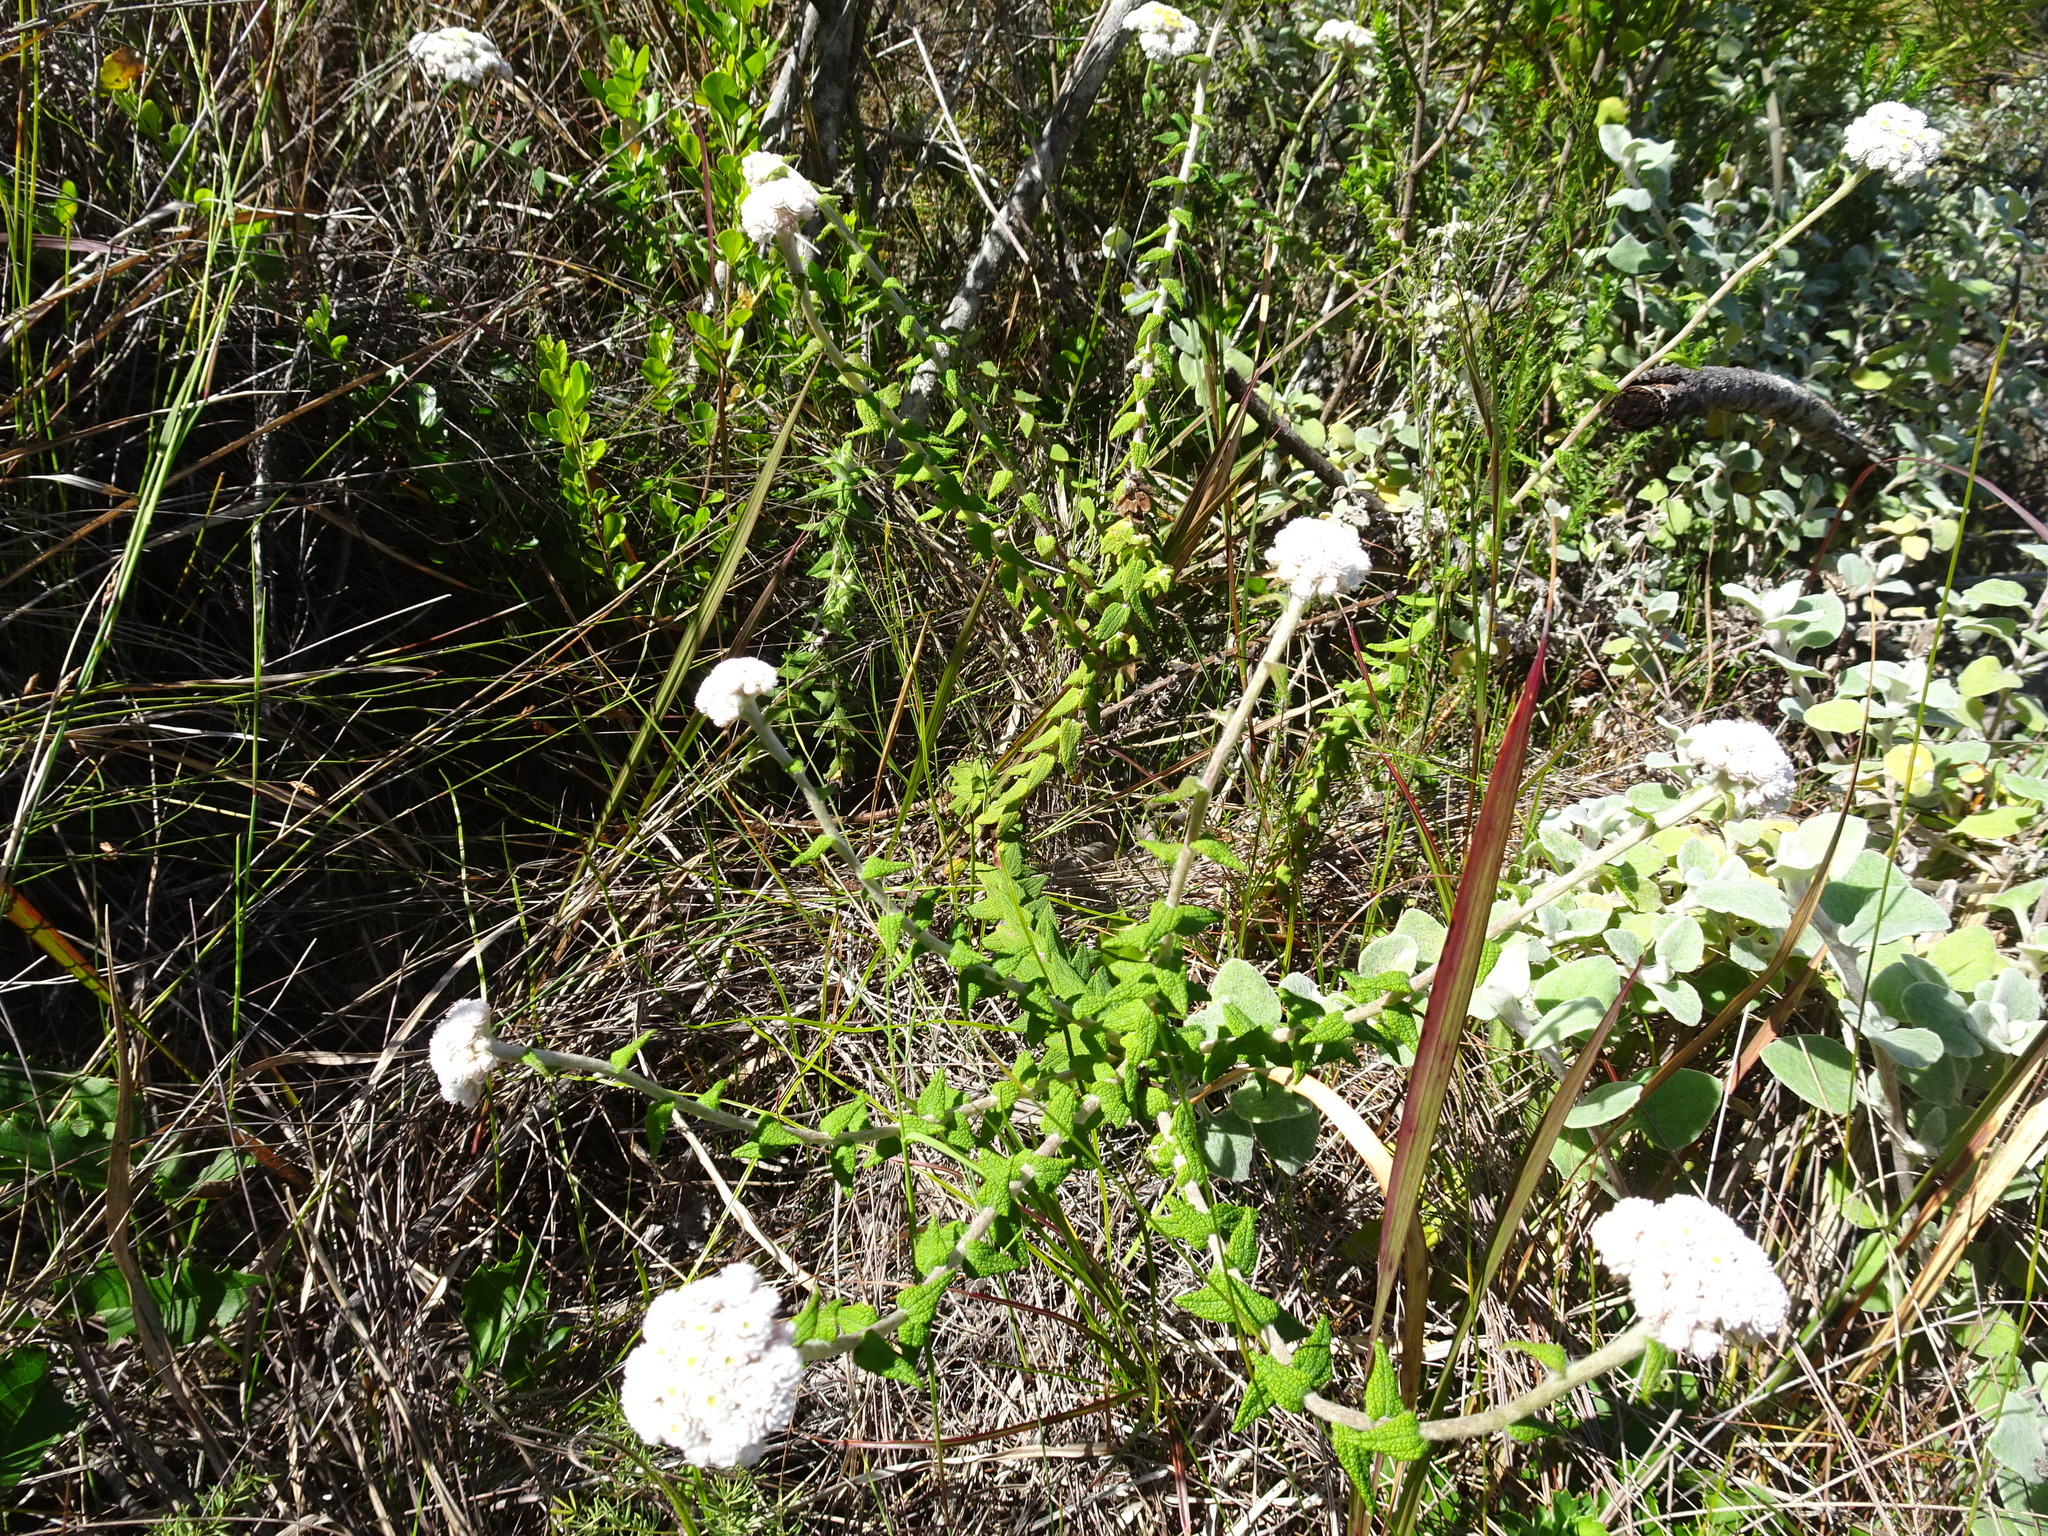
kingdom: Plantae
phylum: Tracheophyta
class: Magnoliopsida
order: Asterales
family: Asteraceae
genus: Helichrysum
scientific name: Helichrysum felinum
